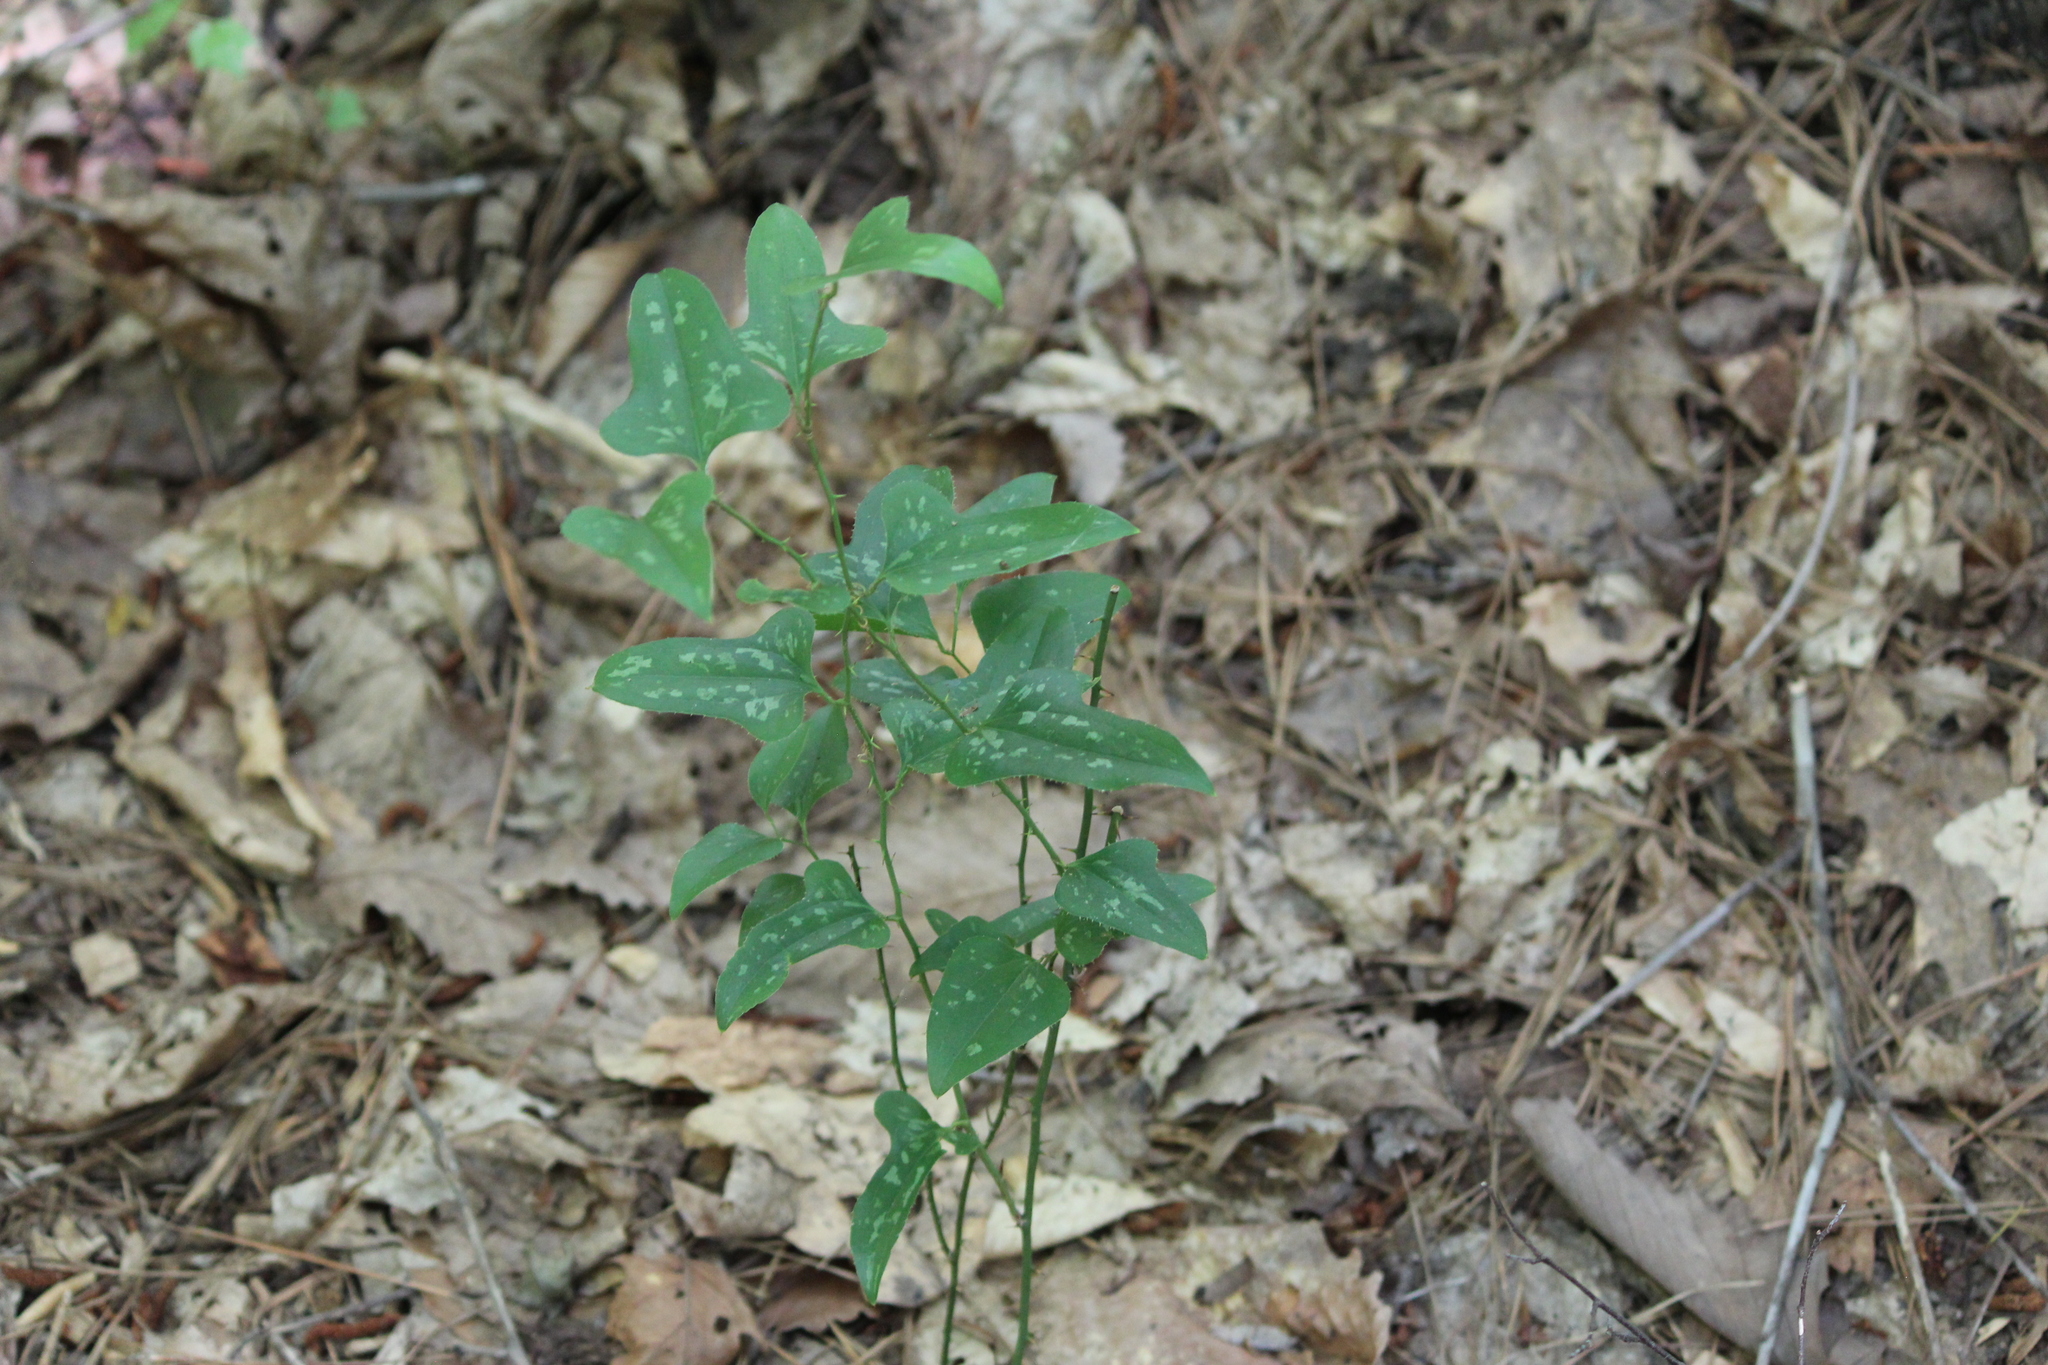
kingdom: Plantae
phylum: Tracheophyta
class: Liliopsida
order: Liliales
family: Smilacaceae
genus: Smilax
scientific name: Smilax bona-nox
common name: Catbrier
